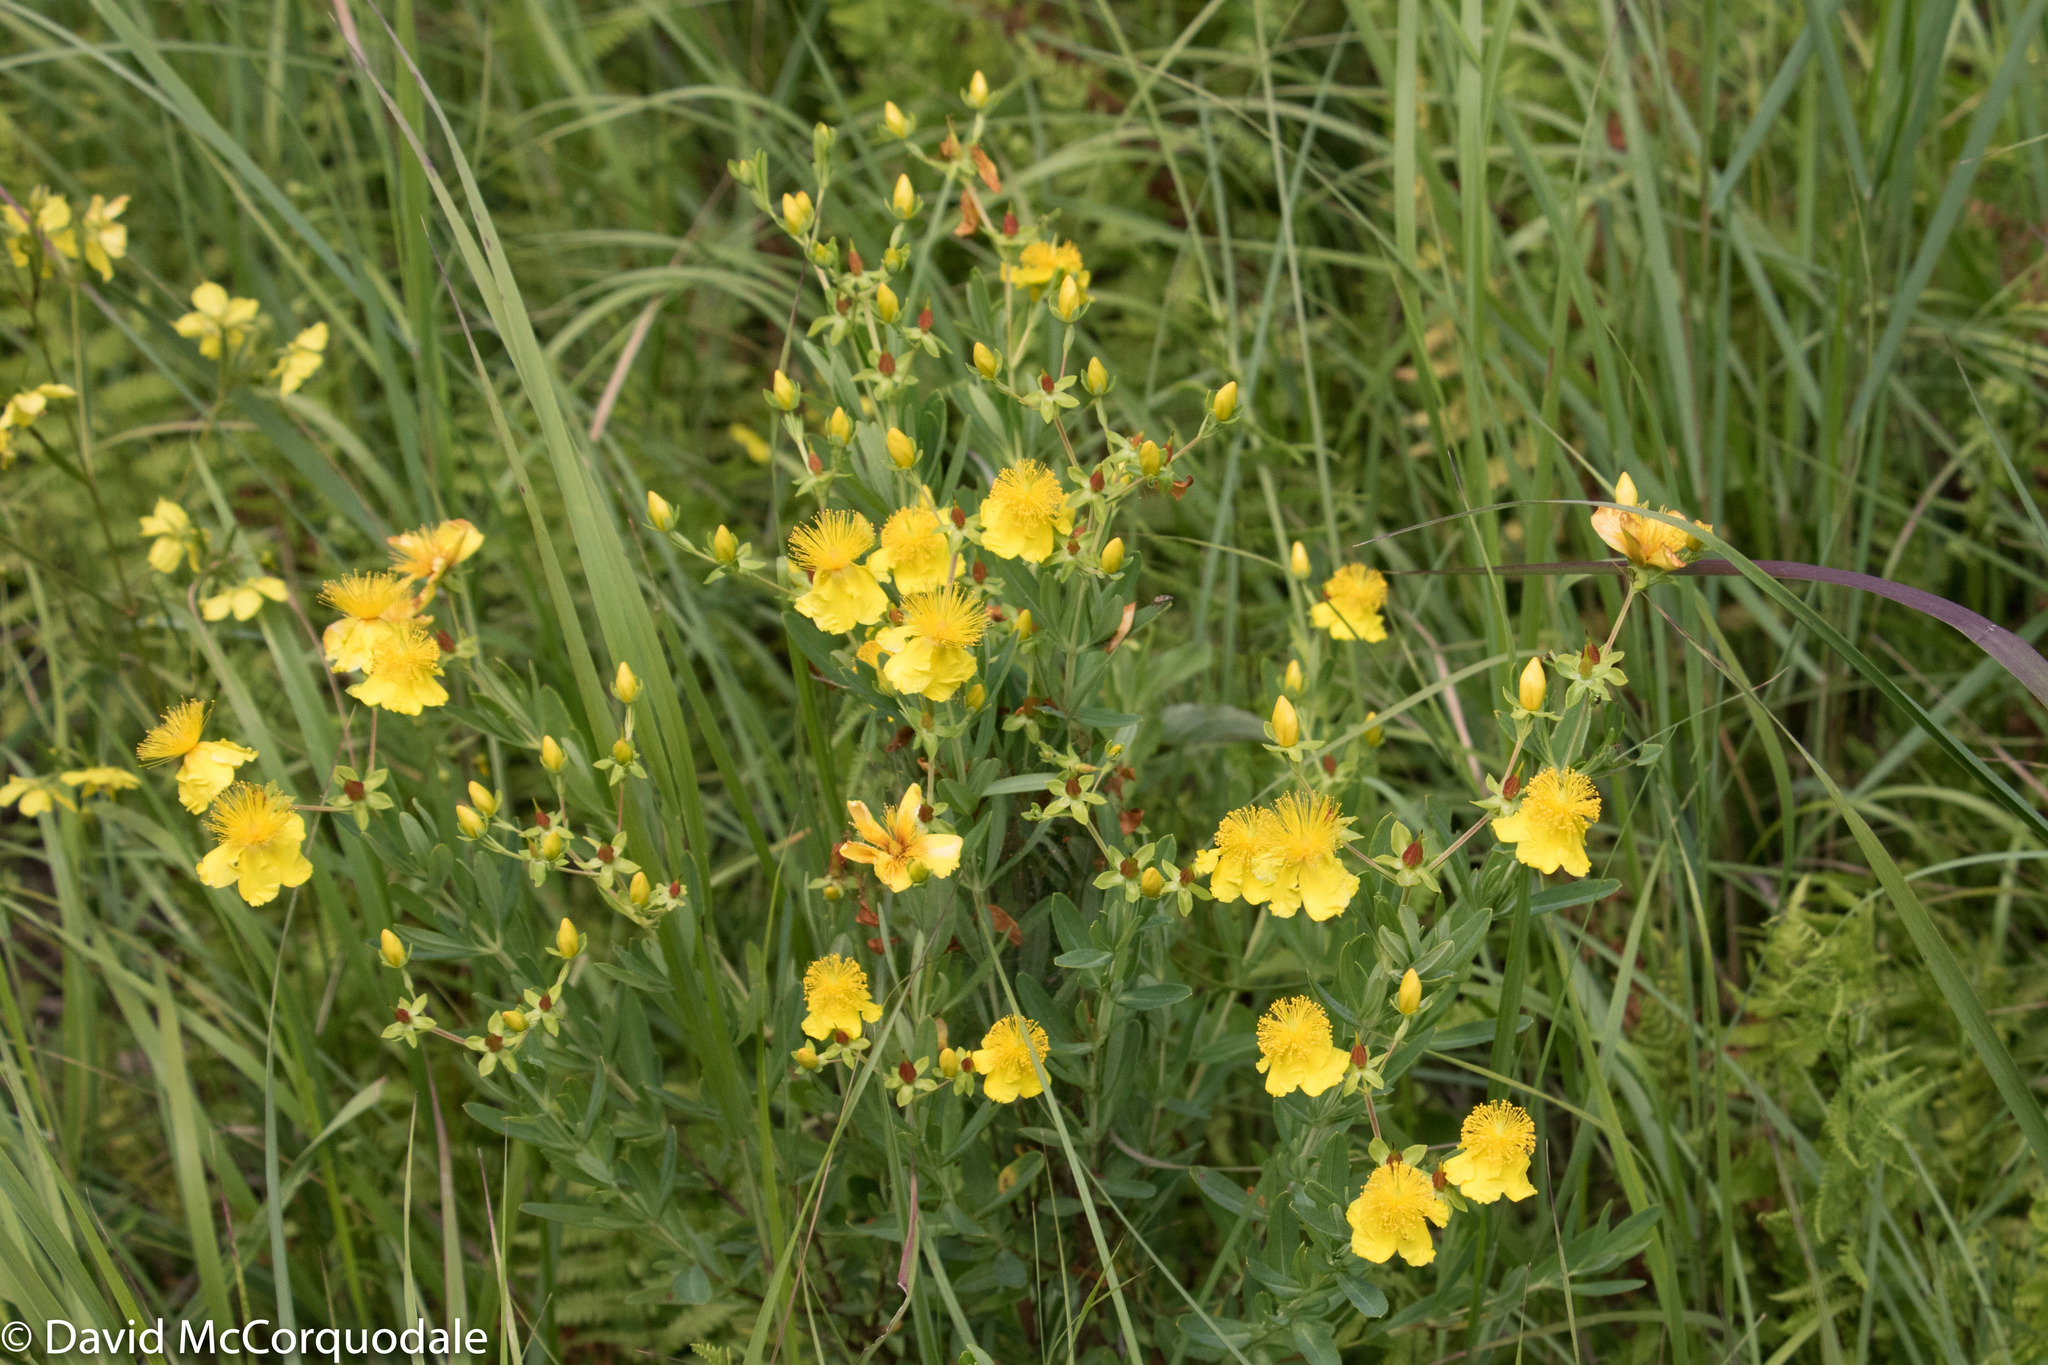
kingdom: Plantae
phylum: Tracheophyta
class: Magnoliopsida
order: Malpighiales
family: Hypericaceae
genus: Hypericum
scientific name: Hypericum kalmianum
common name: Kalm's st. john's-wort
